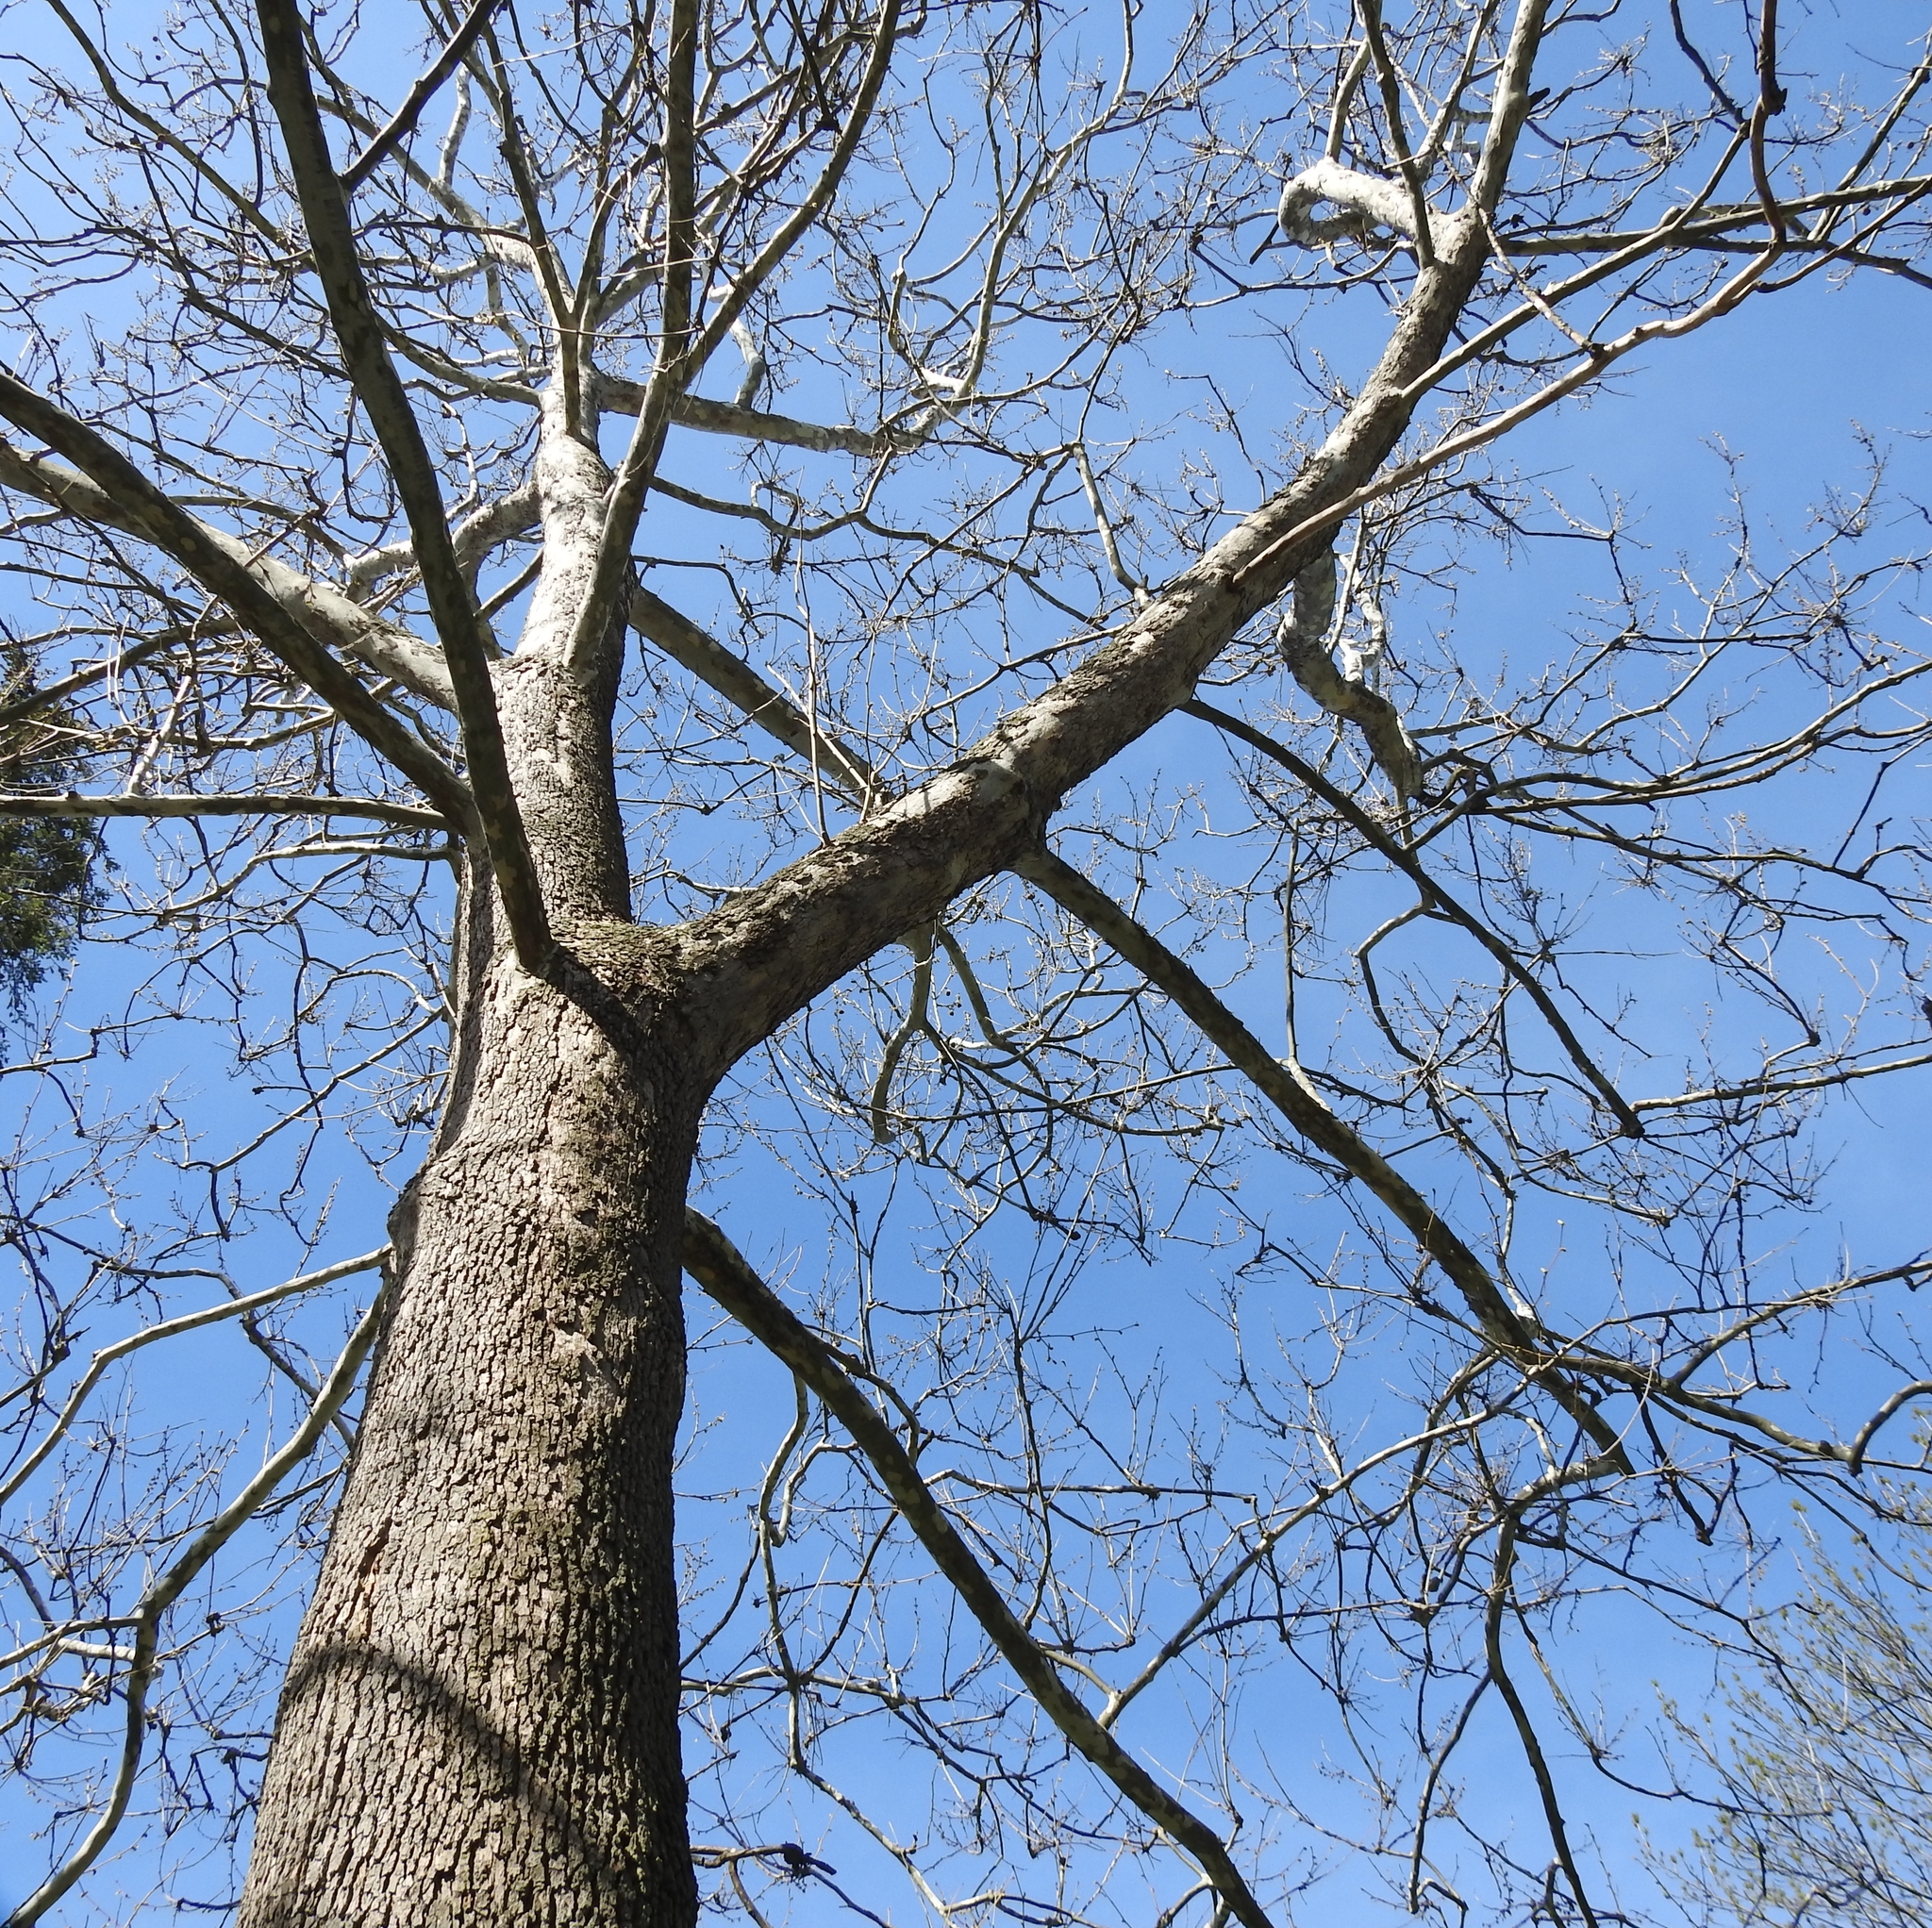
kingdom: Plantae
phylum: Tracheophyta
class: Magnoliopsida
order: Proteales
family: Platanaceae
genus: Platanus
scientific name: Platanus occidentalis
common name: American sycamore
